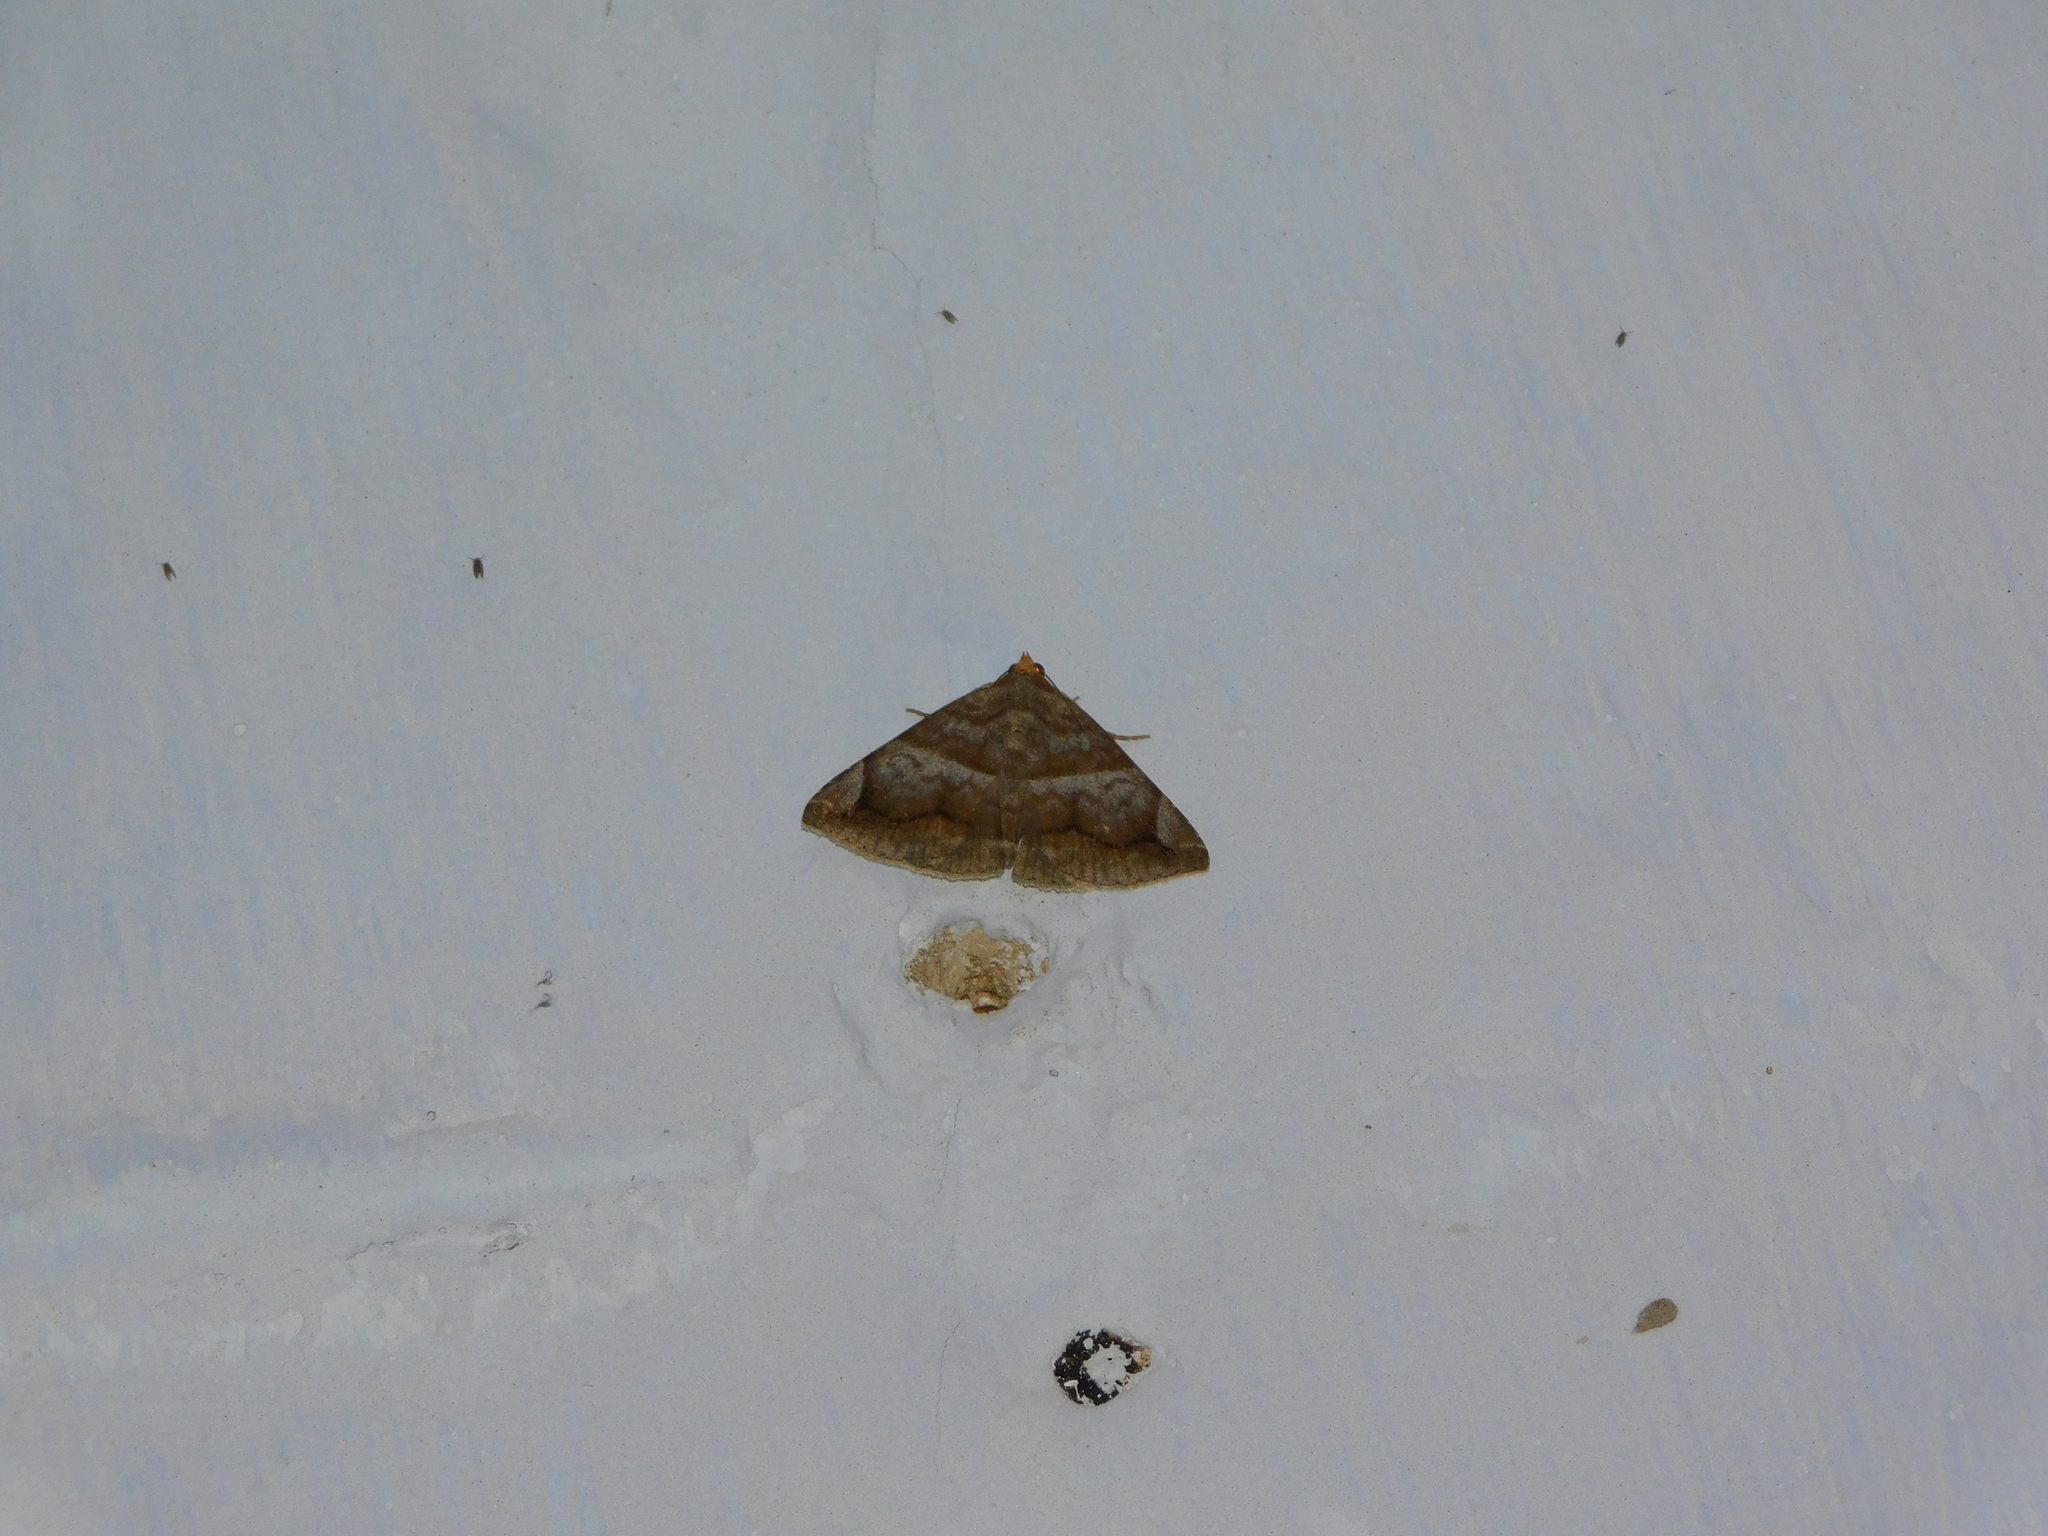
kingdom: Animalia
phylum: Arthropoda
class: Insecta
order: Lepidoptera
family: Erebidae
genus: Buzara
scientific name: Buzara onelia
